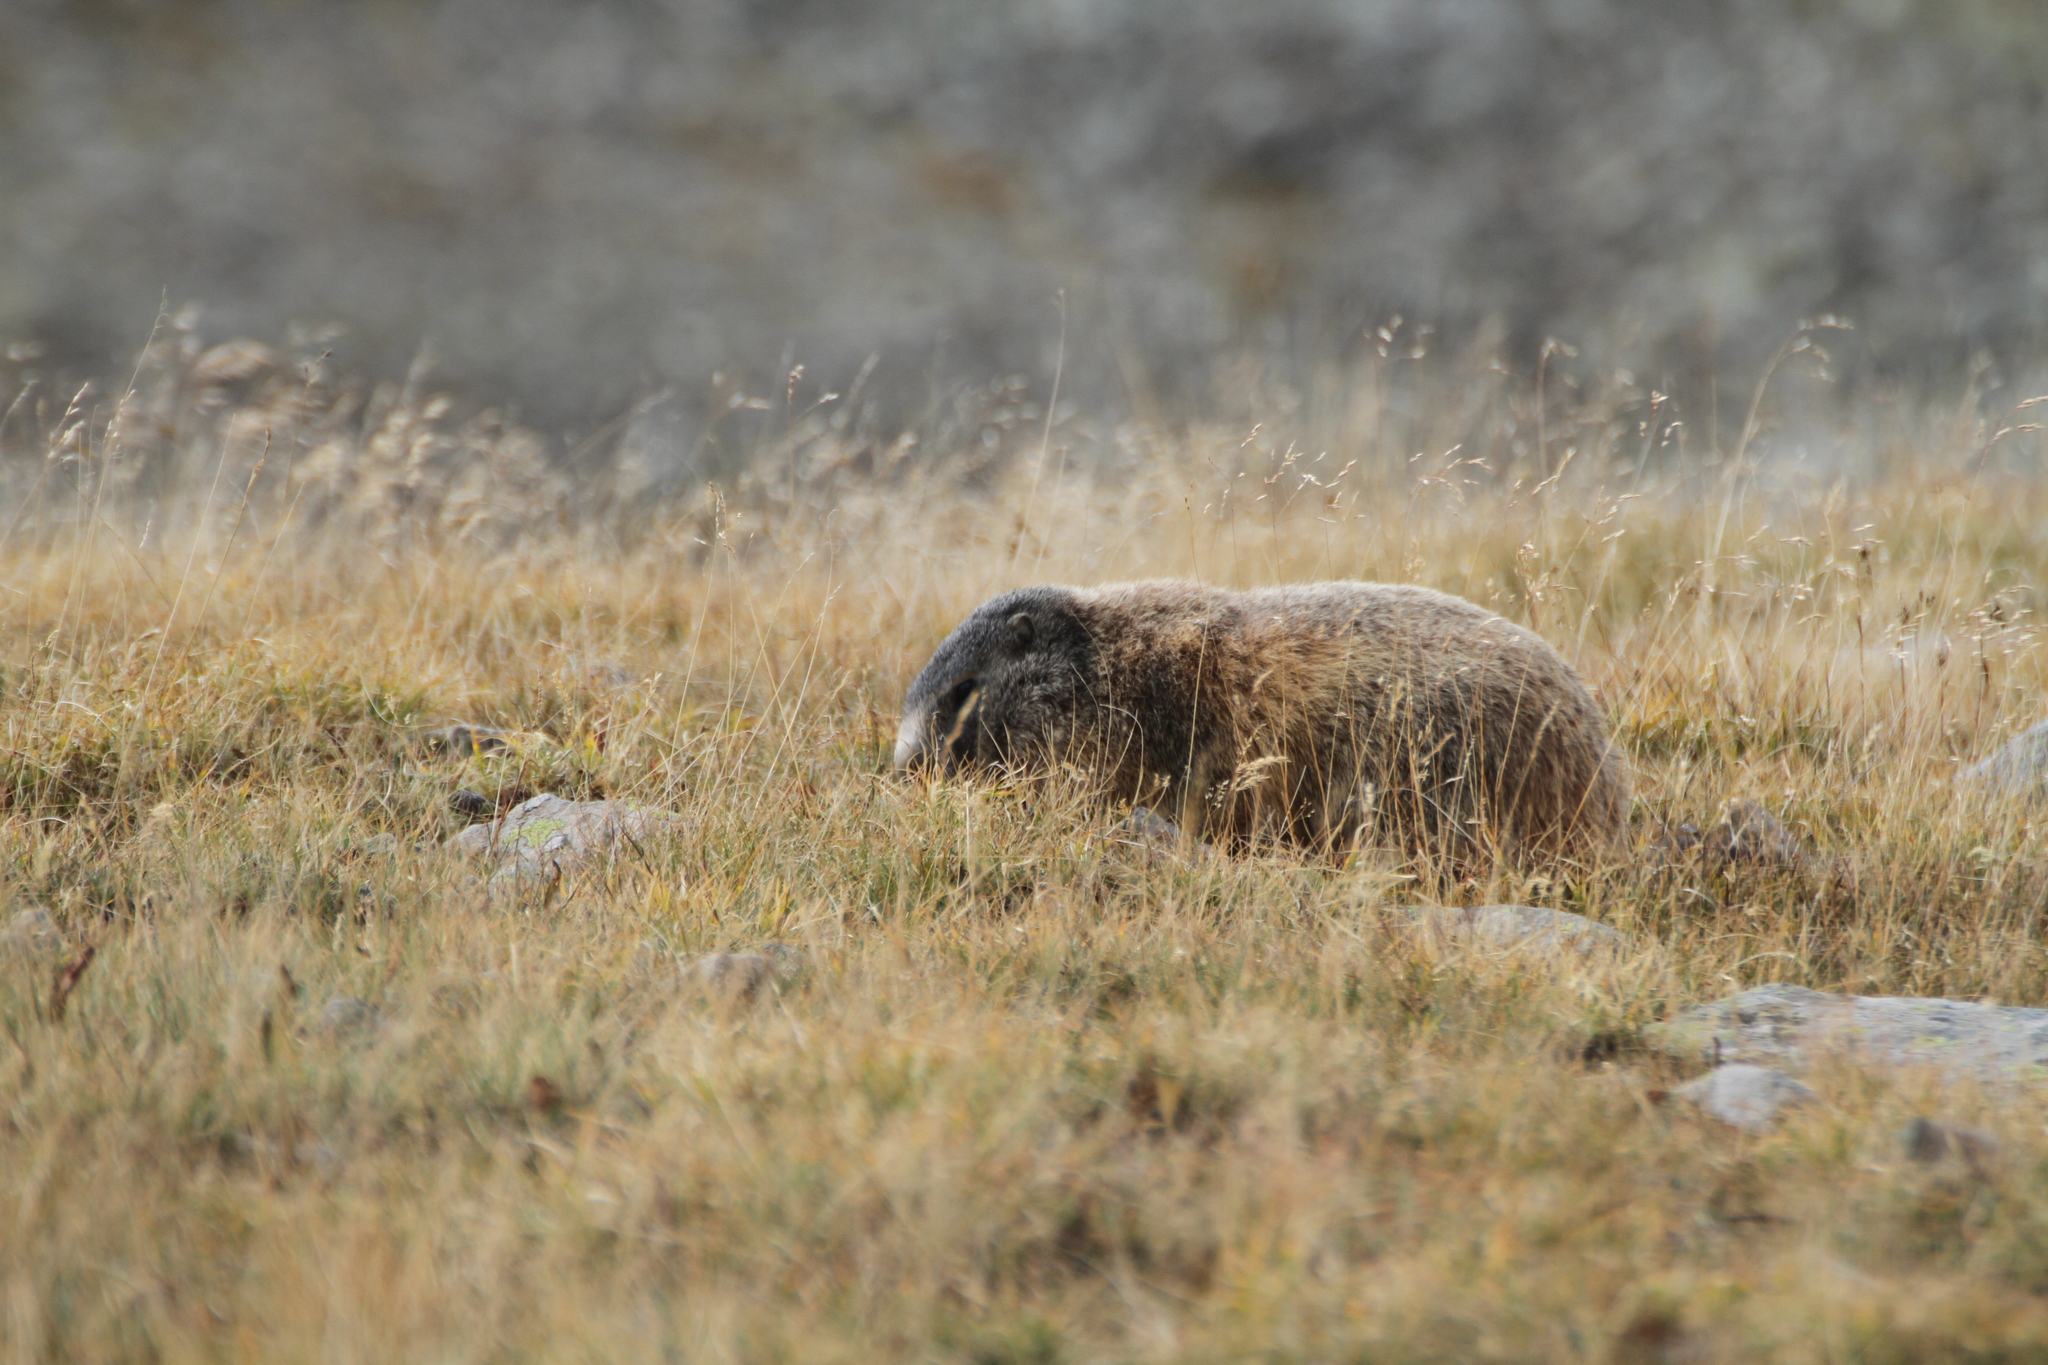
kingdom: Animalia
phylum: Chordata
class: Mammalia
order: Rodentia
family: Sciuridae
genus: Marmota
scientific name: Marmota marmota
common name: Alpine marmot
